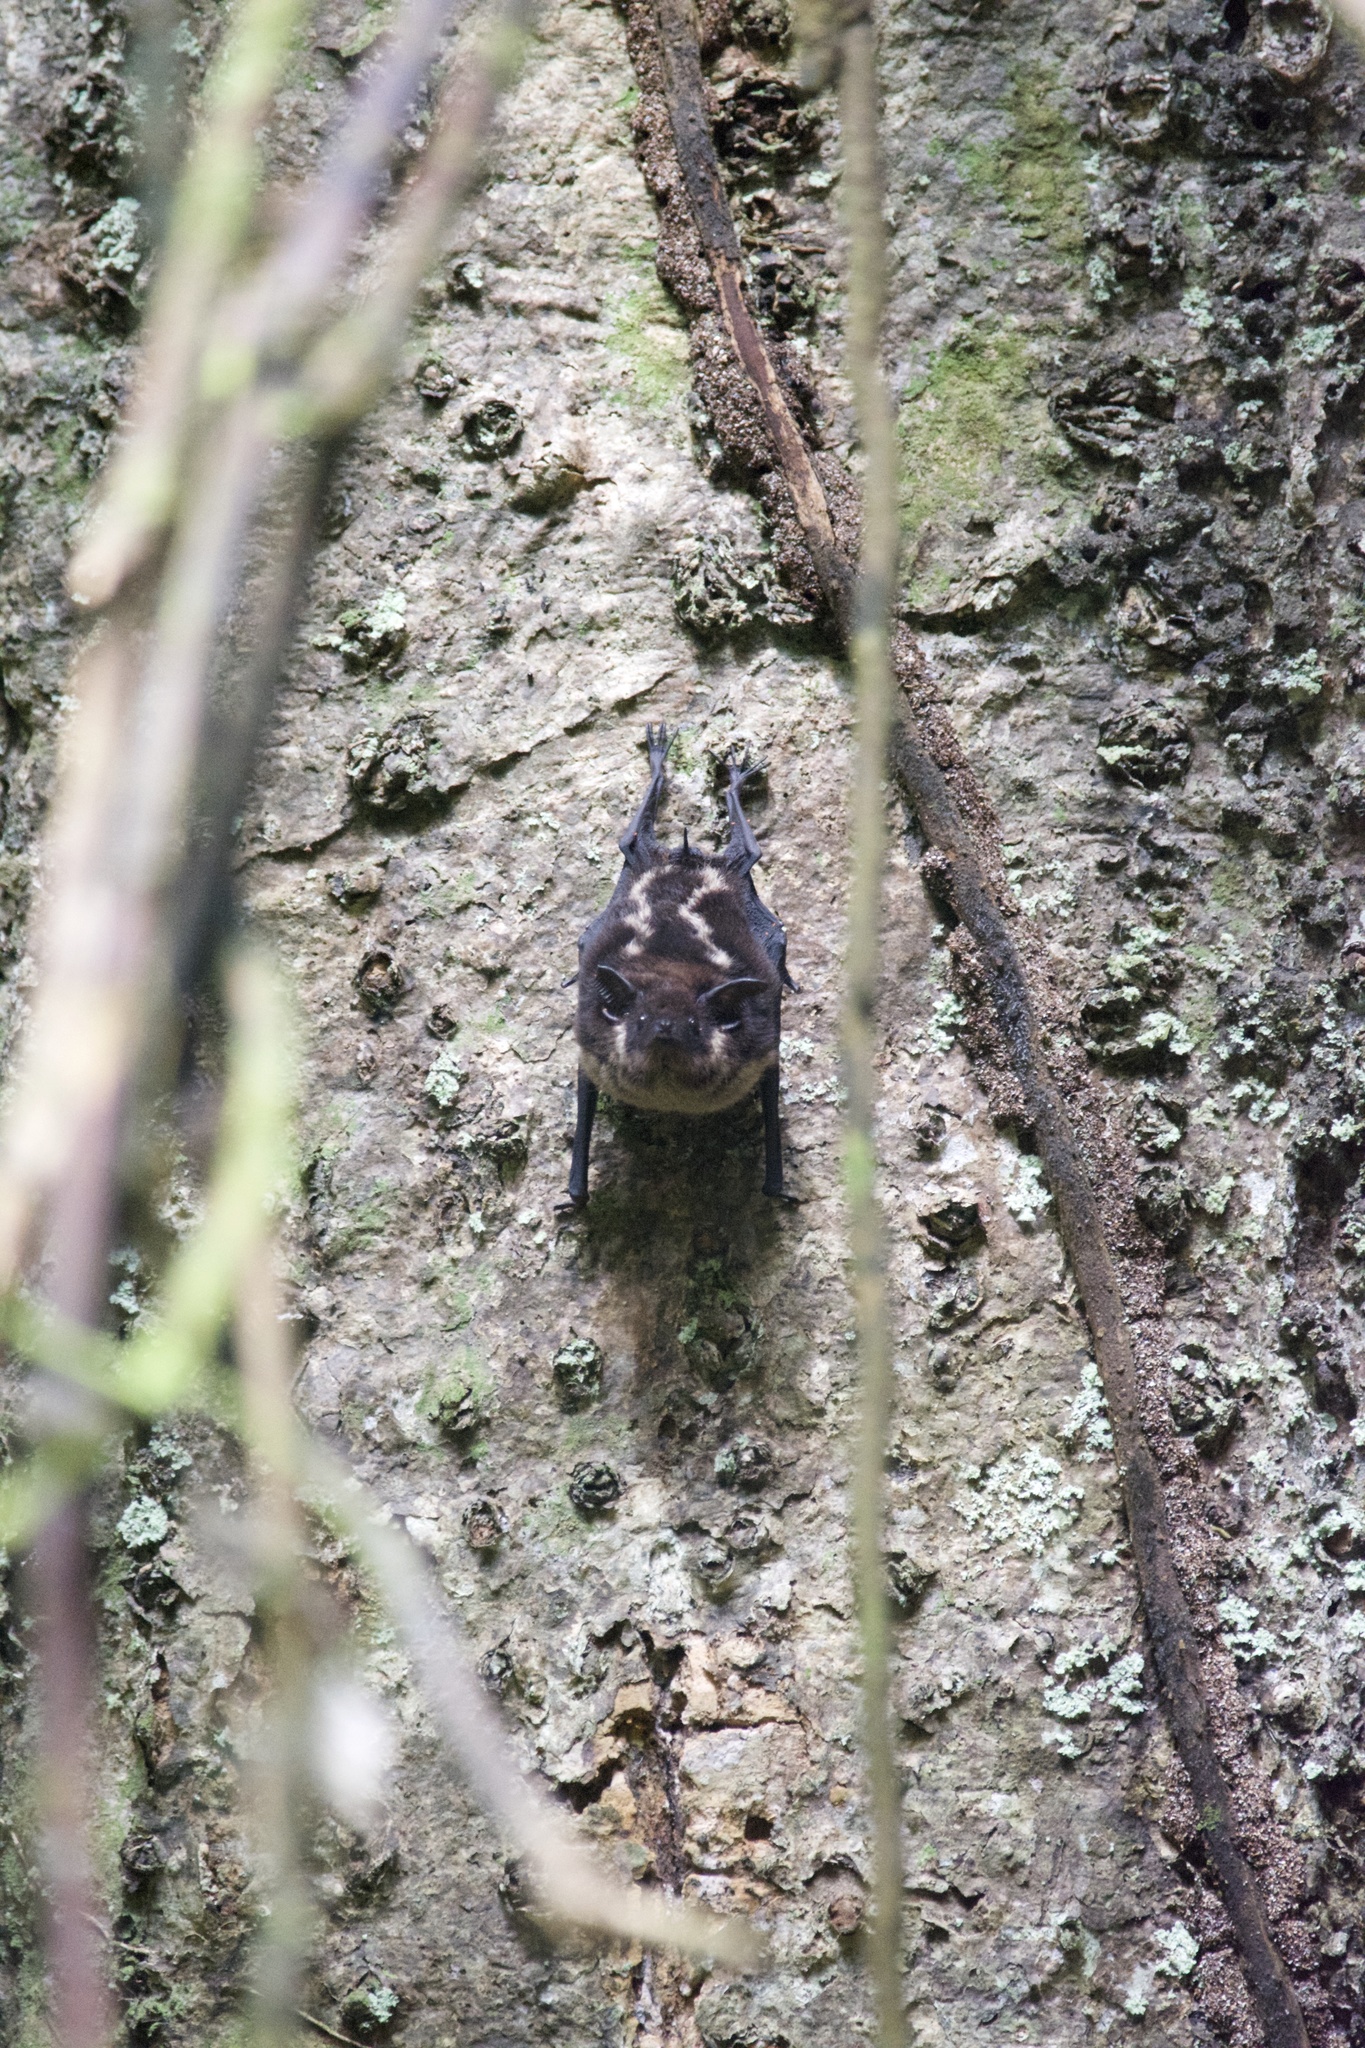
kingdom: Animalia
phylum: Chordata
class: Mammalia
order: Chiroptera
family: Emballonuridae
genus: Saccopteryx
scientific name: Saccopteryx bilineata
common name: Greater sac-winged bat
